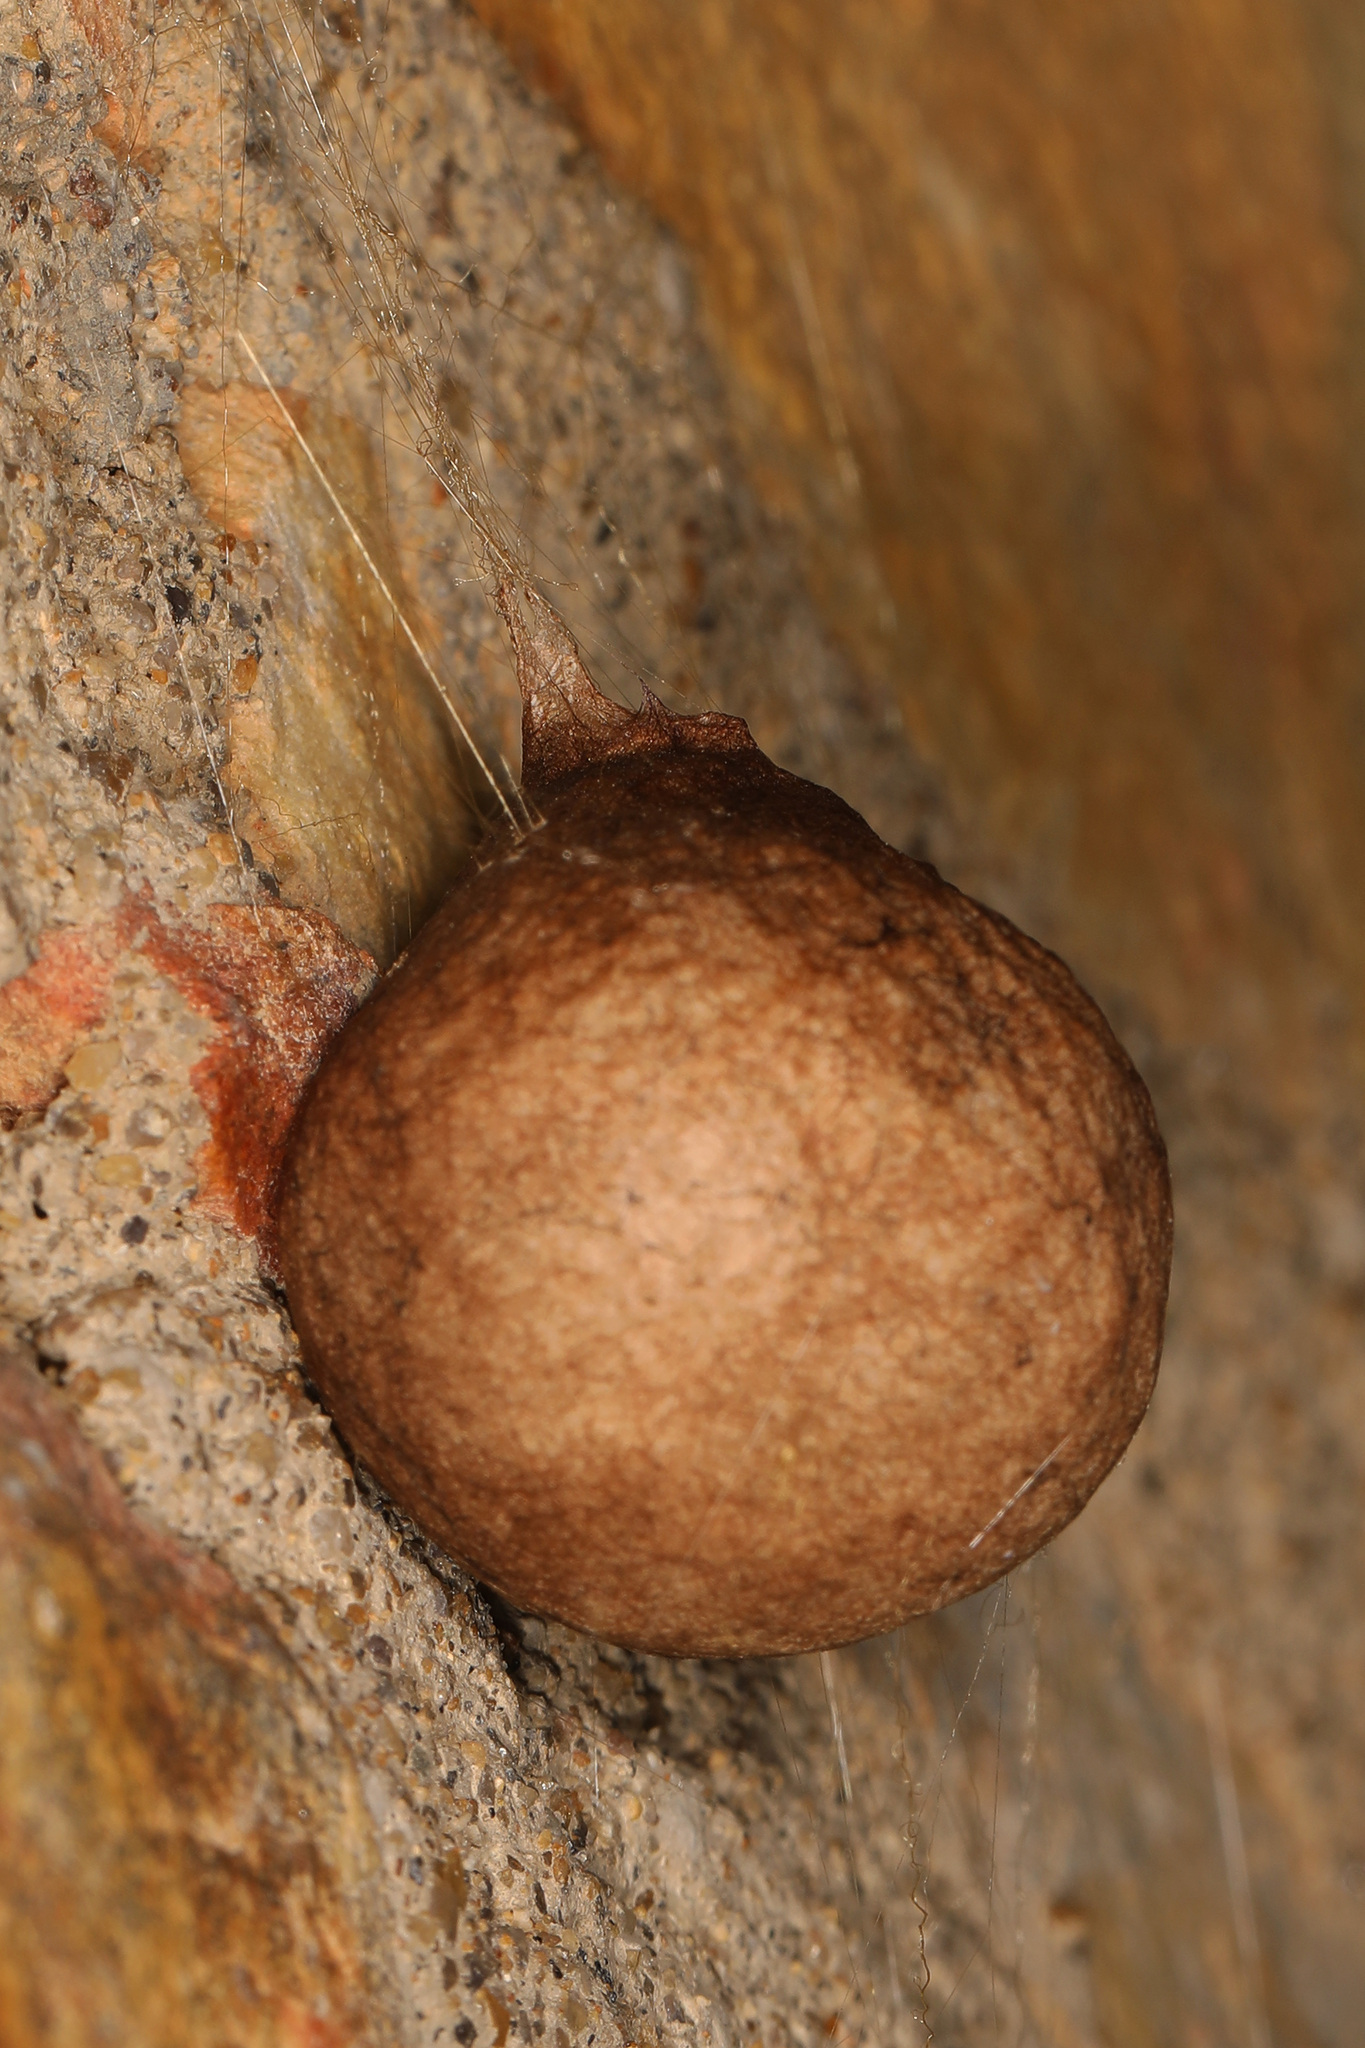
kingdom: Animalia
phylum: Arthropoda
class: Arachnida
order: Araneae
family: Araneidae
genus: Argiope
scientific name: Argiope aurantia
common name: Orb weavers
